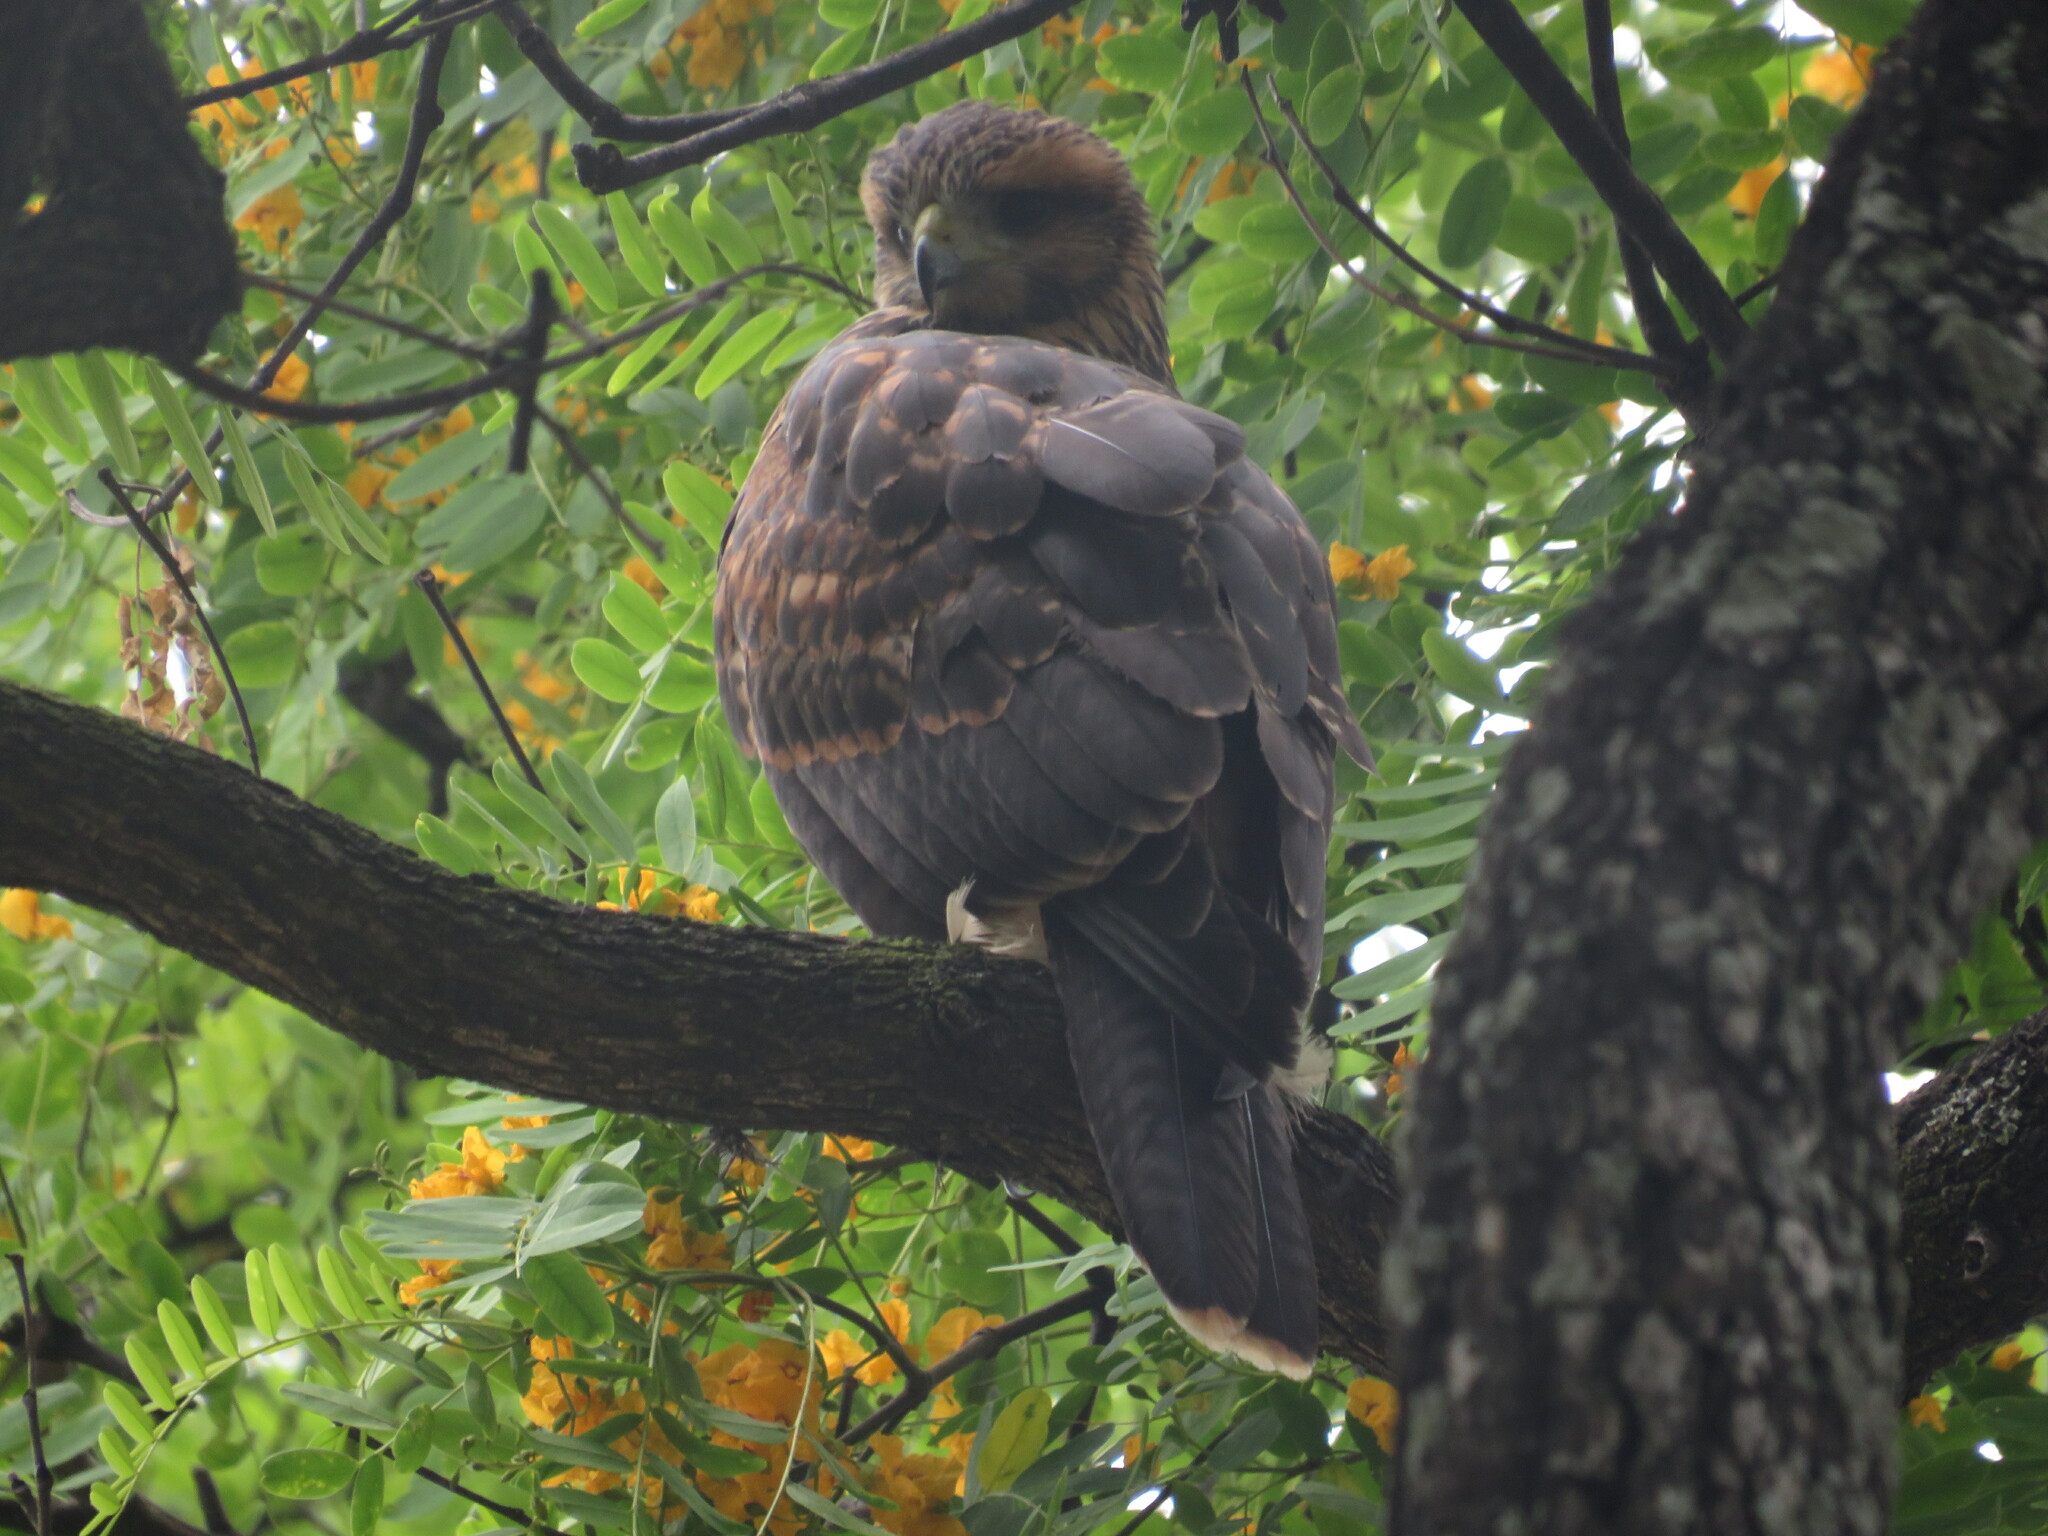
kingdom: Animalia
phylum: Chordata
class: Aves
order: Accipitriformes
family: Accipitridae
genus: Parabuteo
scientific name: Parabuteo unicinctus
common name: Harris's hawk
